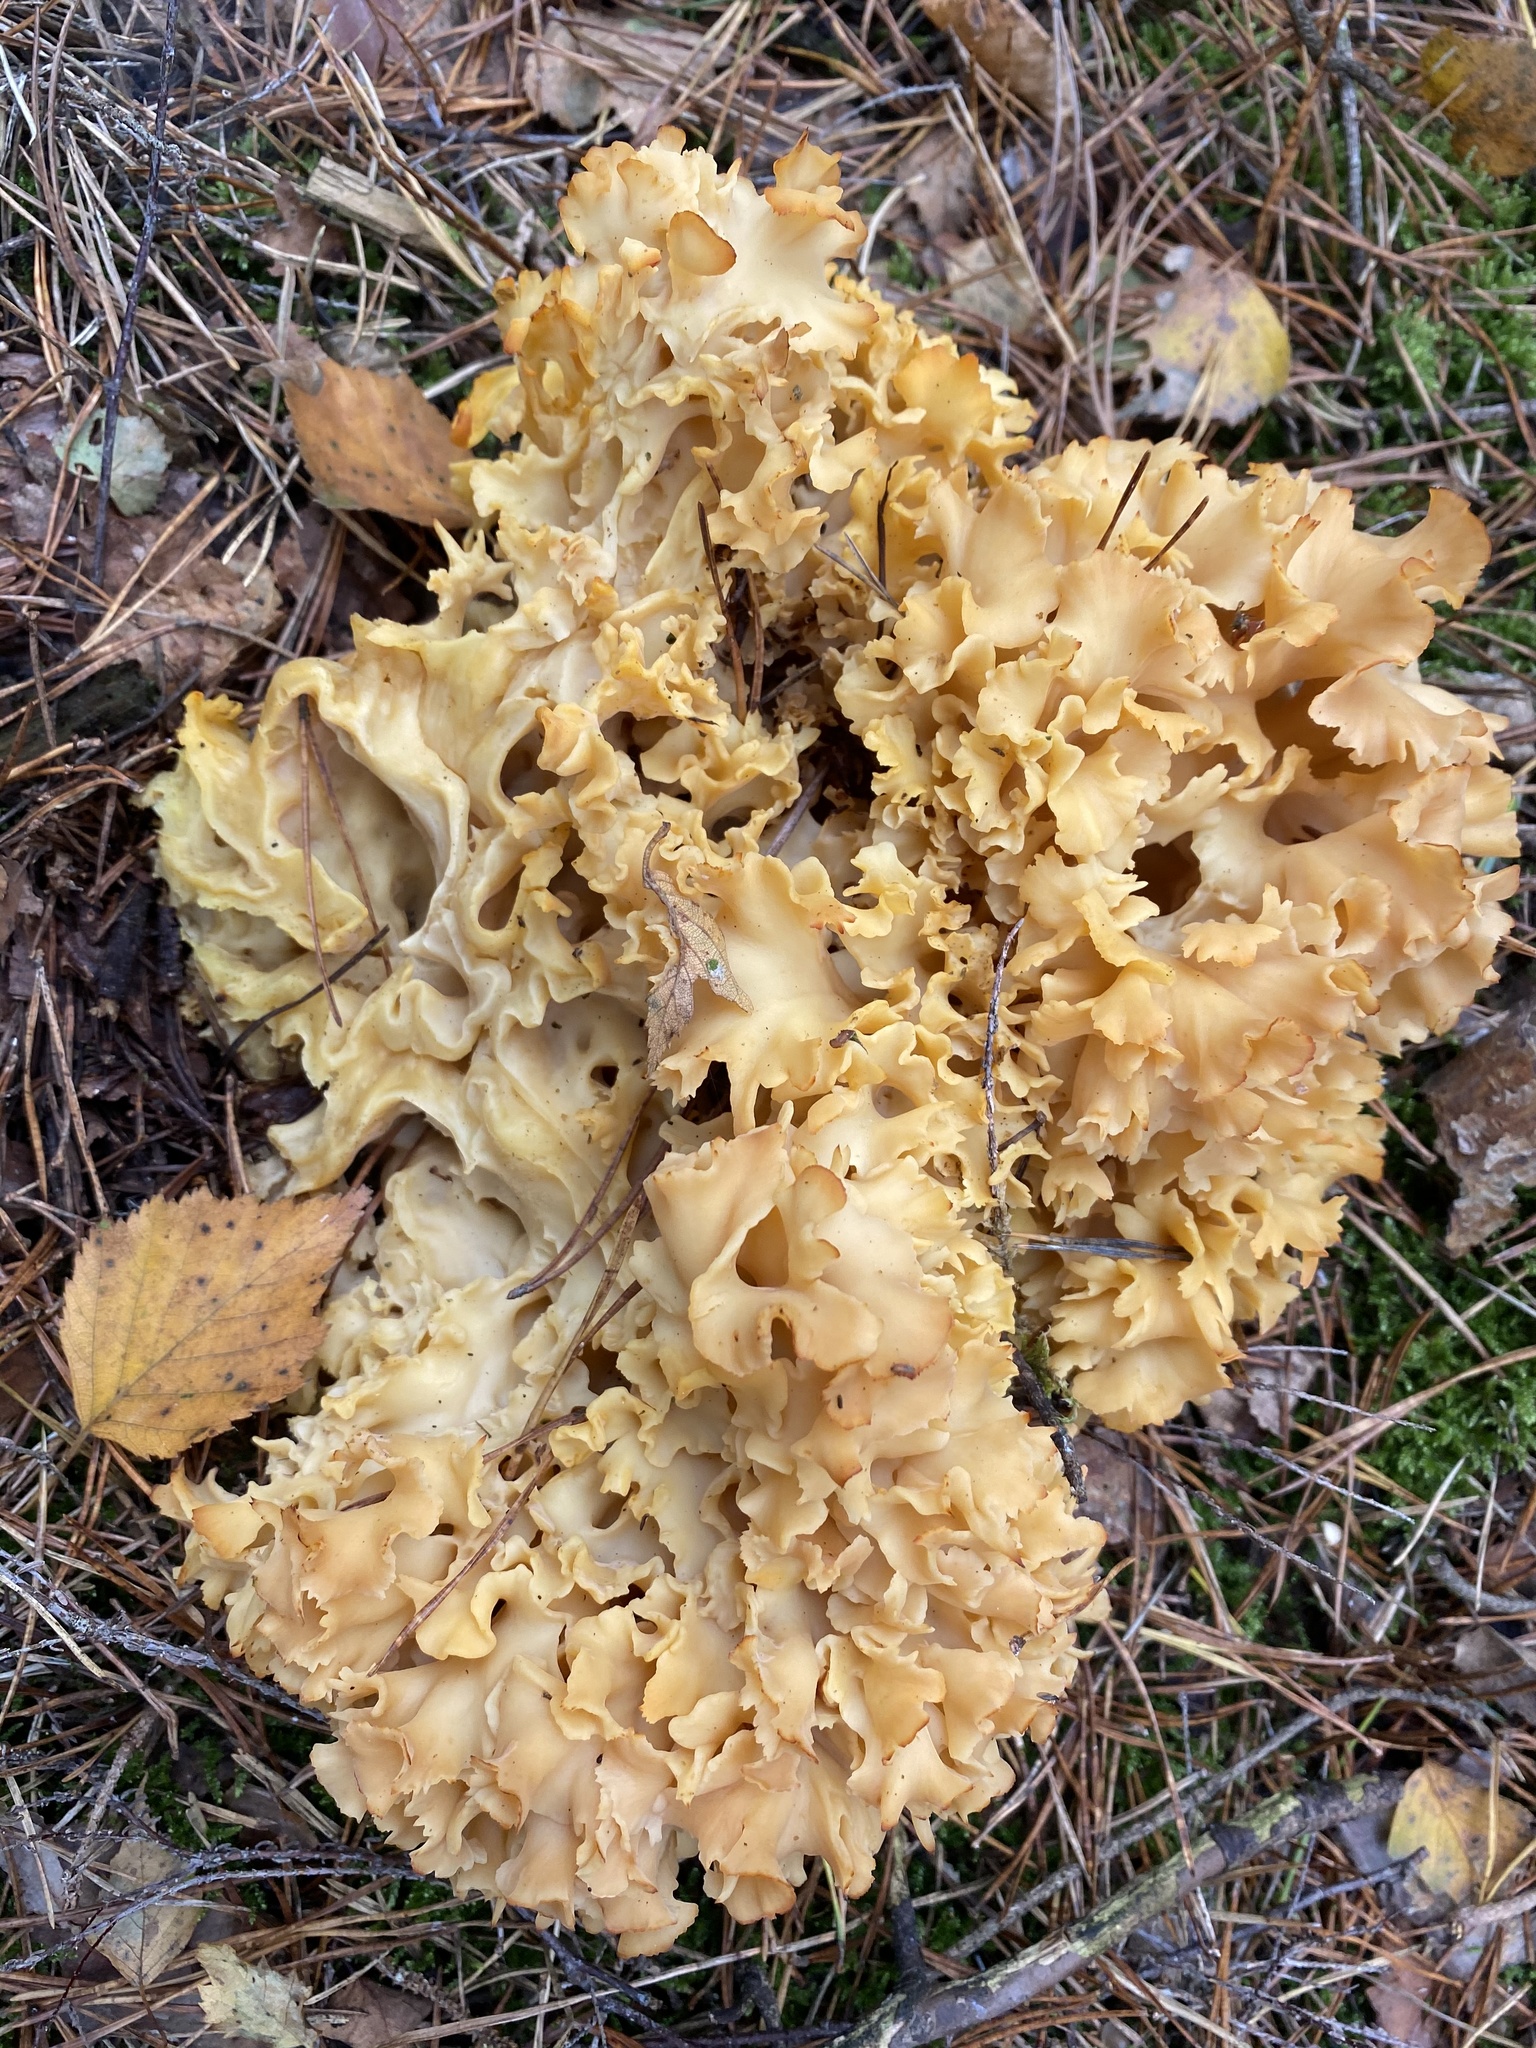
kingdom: Fungi
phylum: Basidiomycota
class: Agaricomycetes
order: Polyporales
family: Sparassidaceae
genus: Sparassis
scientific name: Sparassis crispa
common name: Brain fungus
